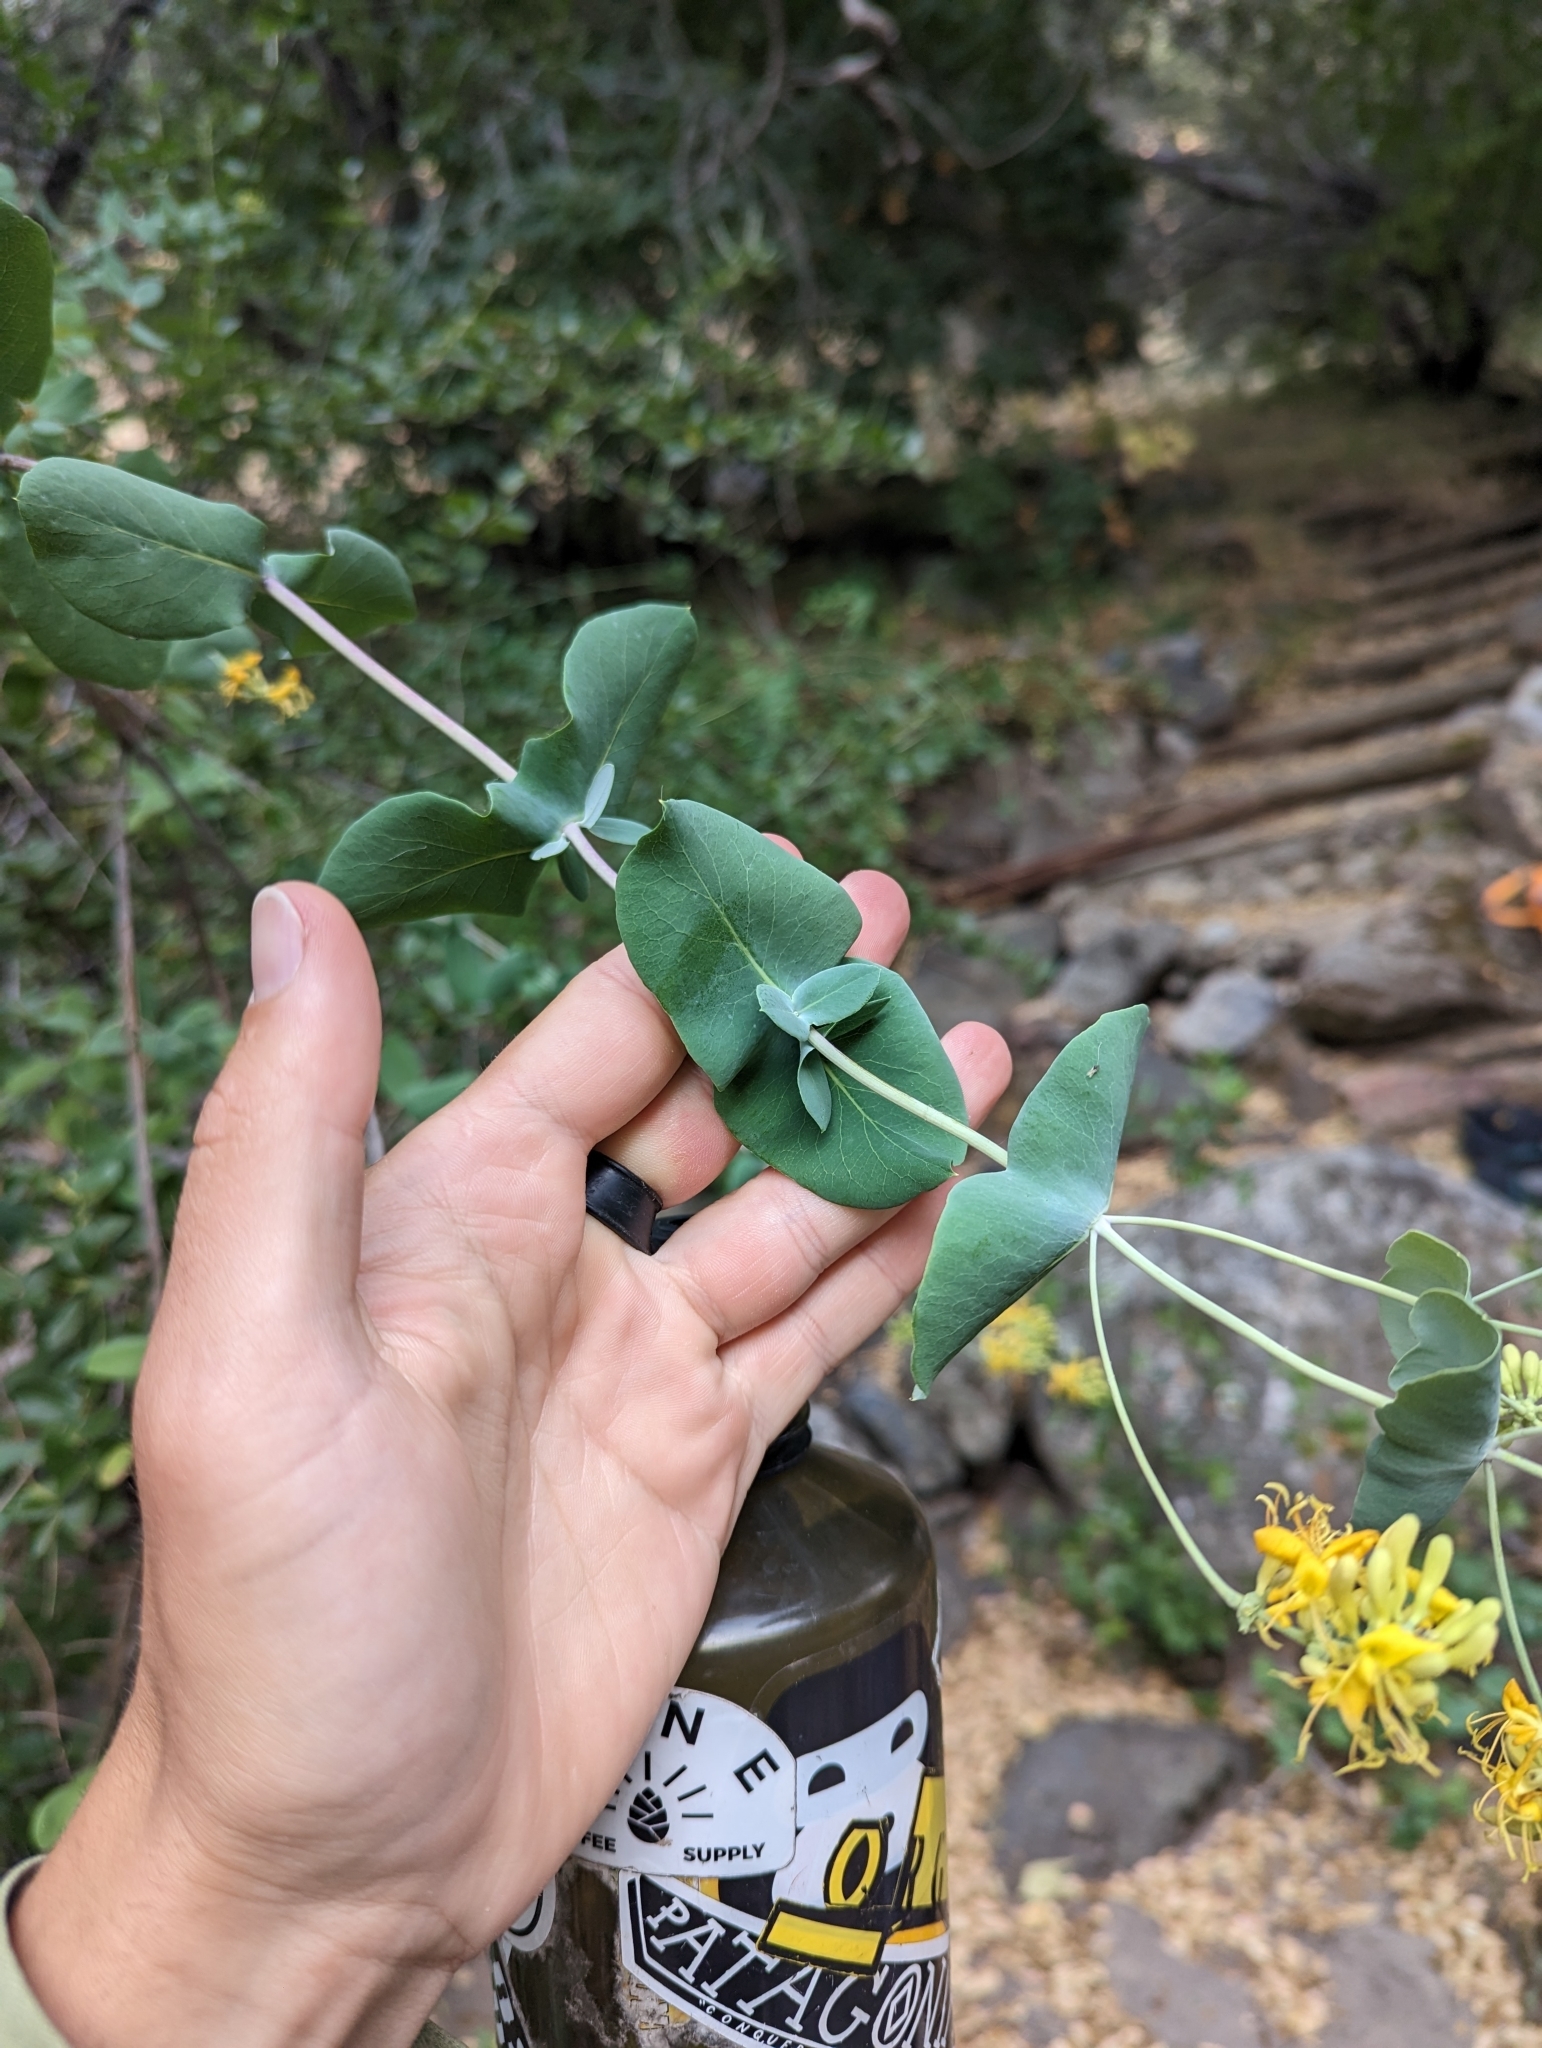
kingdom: Plantae
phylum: Tracheophyta
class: Magnoliopsida
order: Dipsacales
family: Caprifoliaceae
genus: Lonicera
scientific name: Lonicera interrupta
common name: Chaparral honeysuckle
